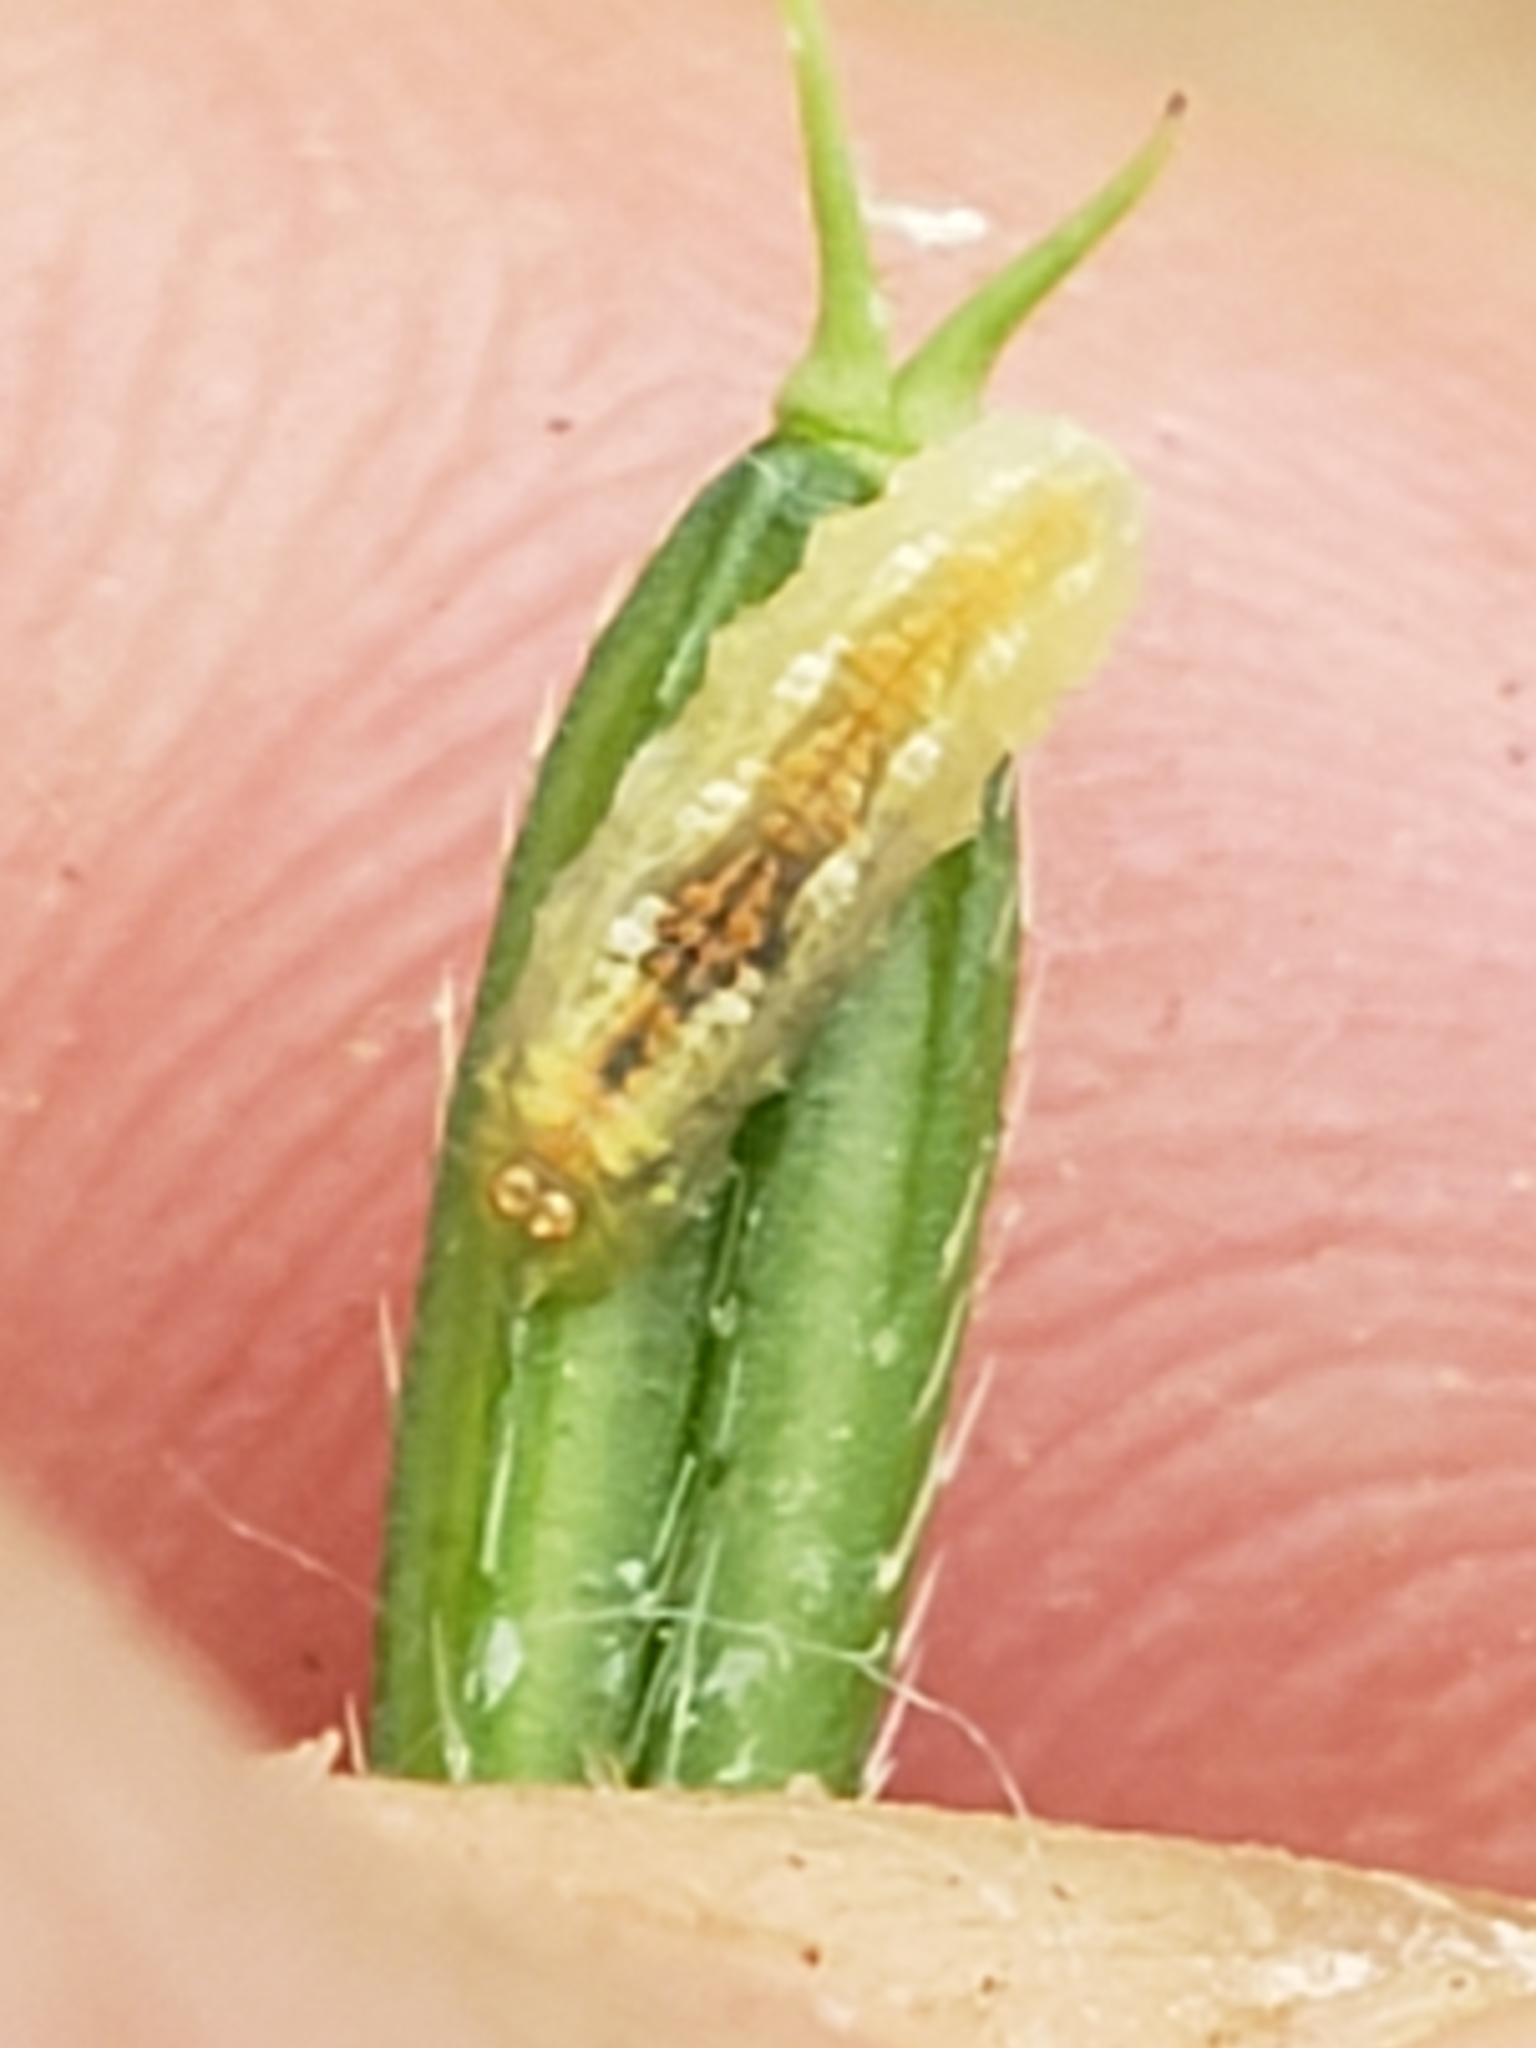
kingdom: Animalia
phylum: Arthropoda
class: Insecta
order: Diptera
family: Syrphidae
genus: Syrphus
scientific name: Syrphus
